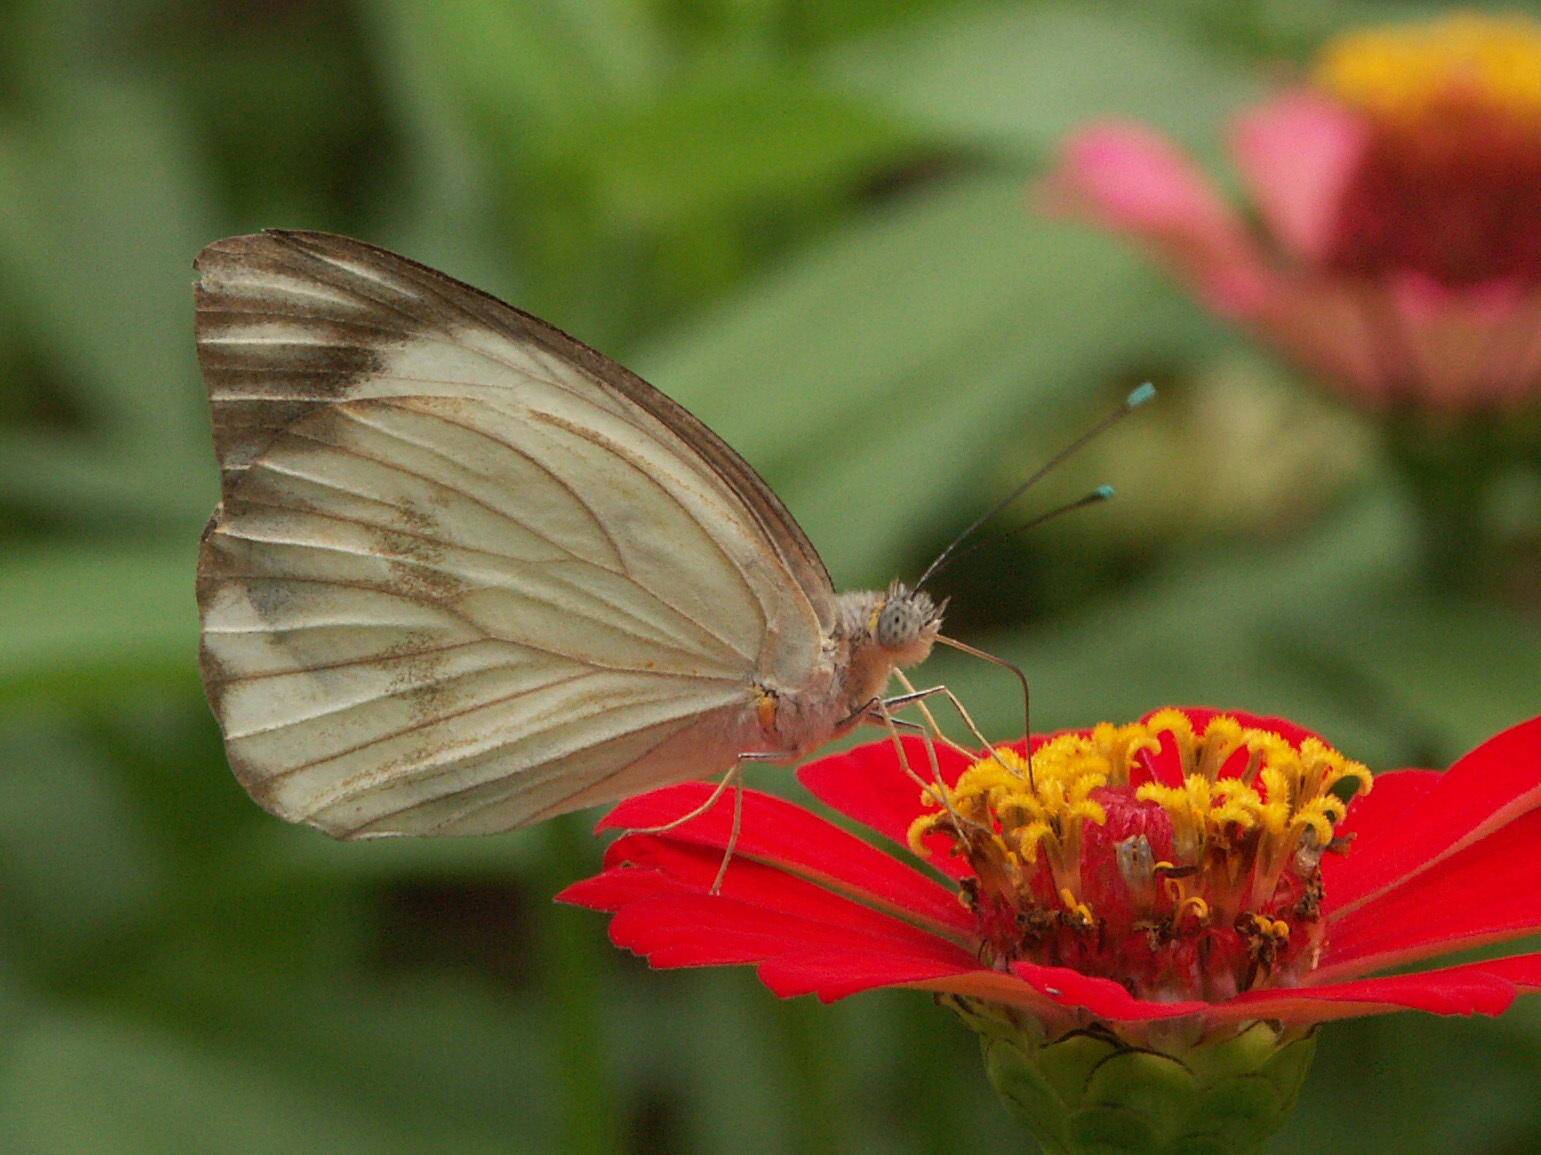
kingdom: Animalia
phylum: Arthropoda
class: Insecta
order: Lepidoptera
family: Pieridae
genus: Ascia
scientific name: Ascia monuste
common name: Great southern white
